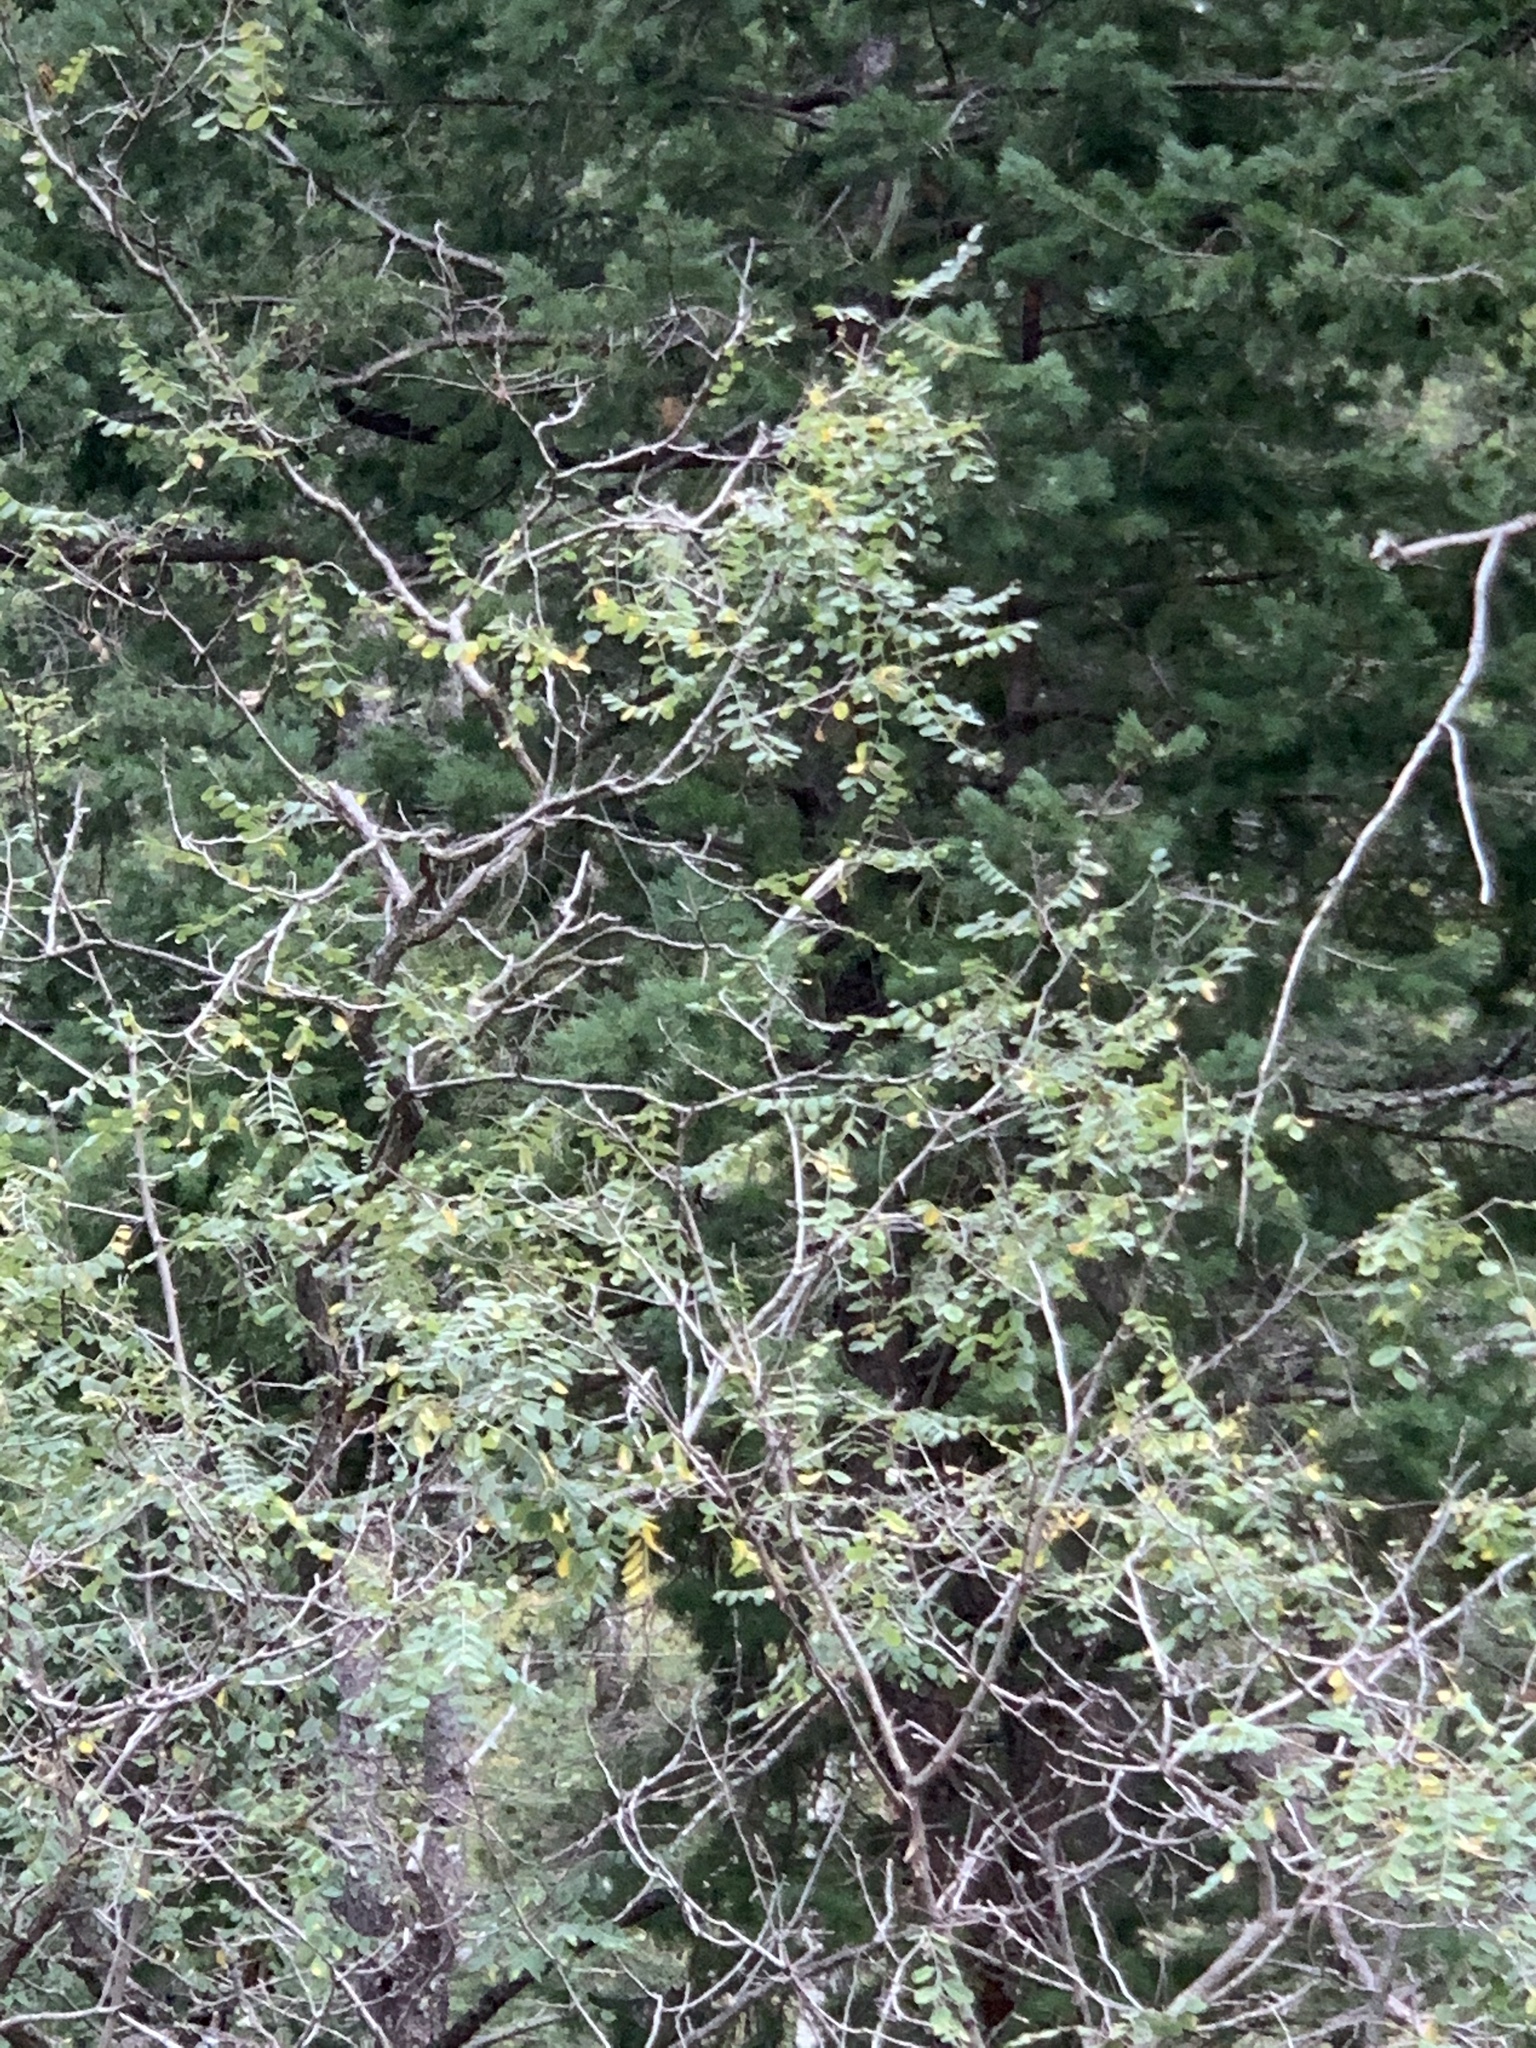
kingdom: Plantae
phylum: Tracheophyta
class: Magnoliopsida
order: Fabales
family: Fabaceae
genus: Robinia
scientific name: Robinia neomexicana
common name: New mexico locust
